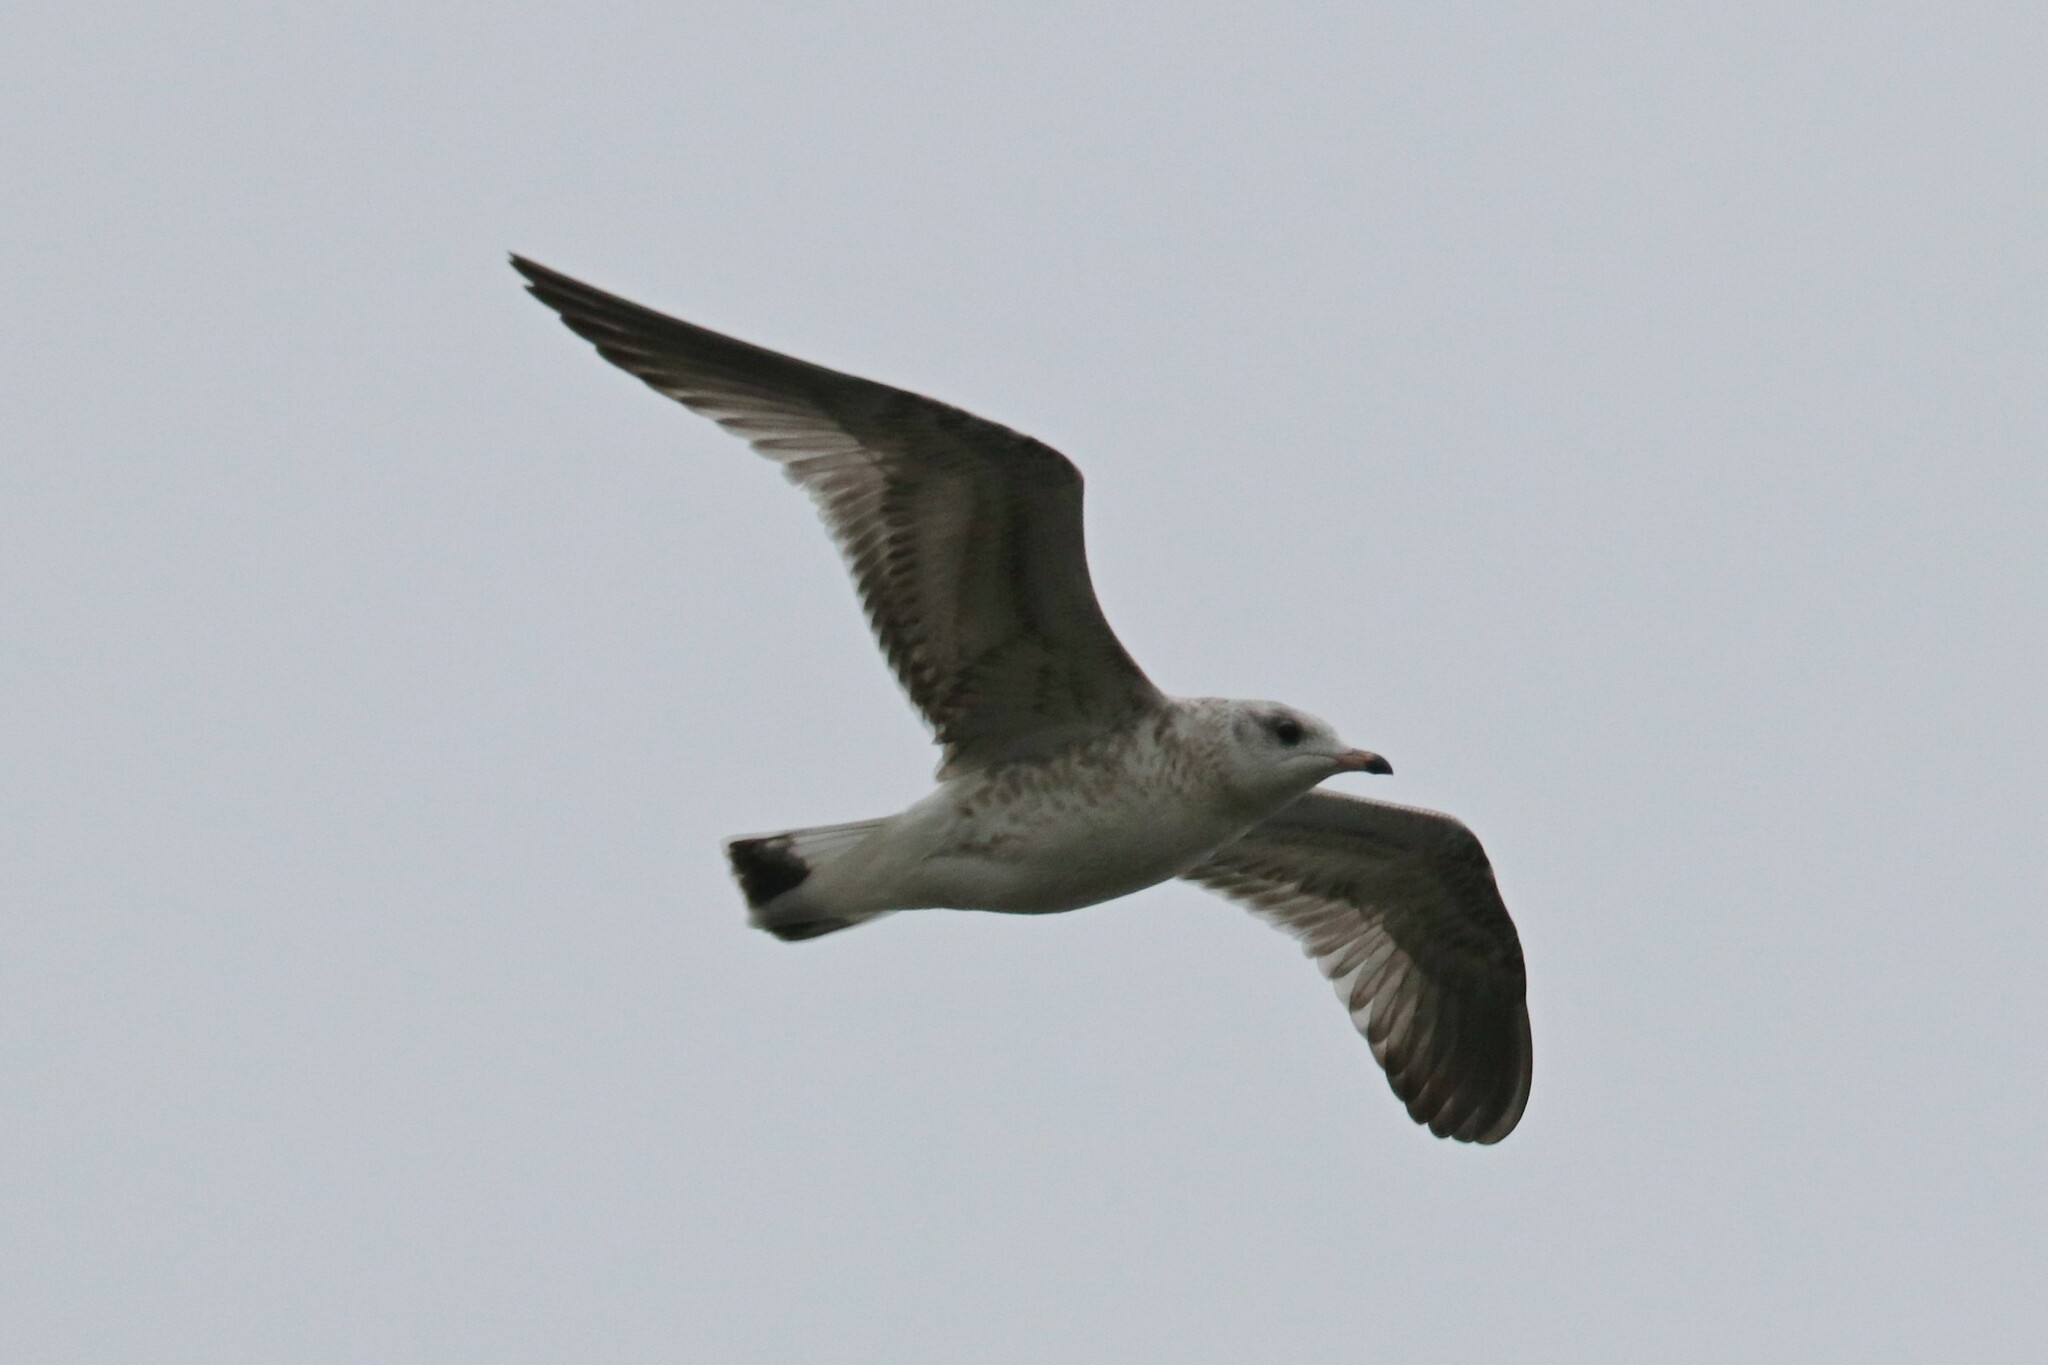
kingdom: Animalia
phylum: Chordata
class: Aves
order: Charadriiformes
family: Laridae
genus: Larus
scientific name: Larus canus
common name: Mew gull
